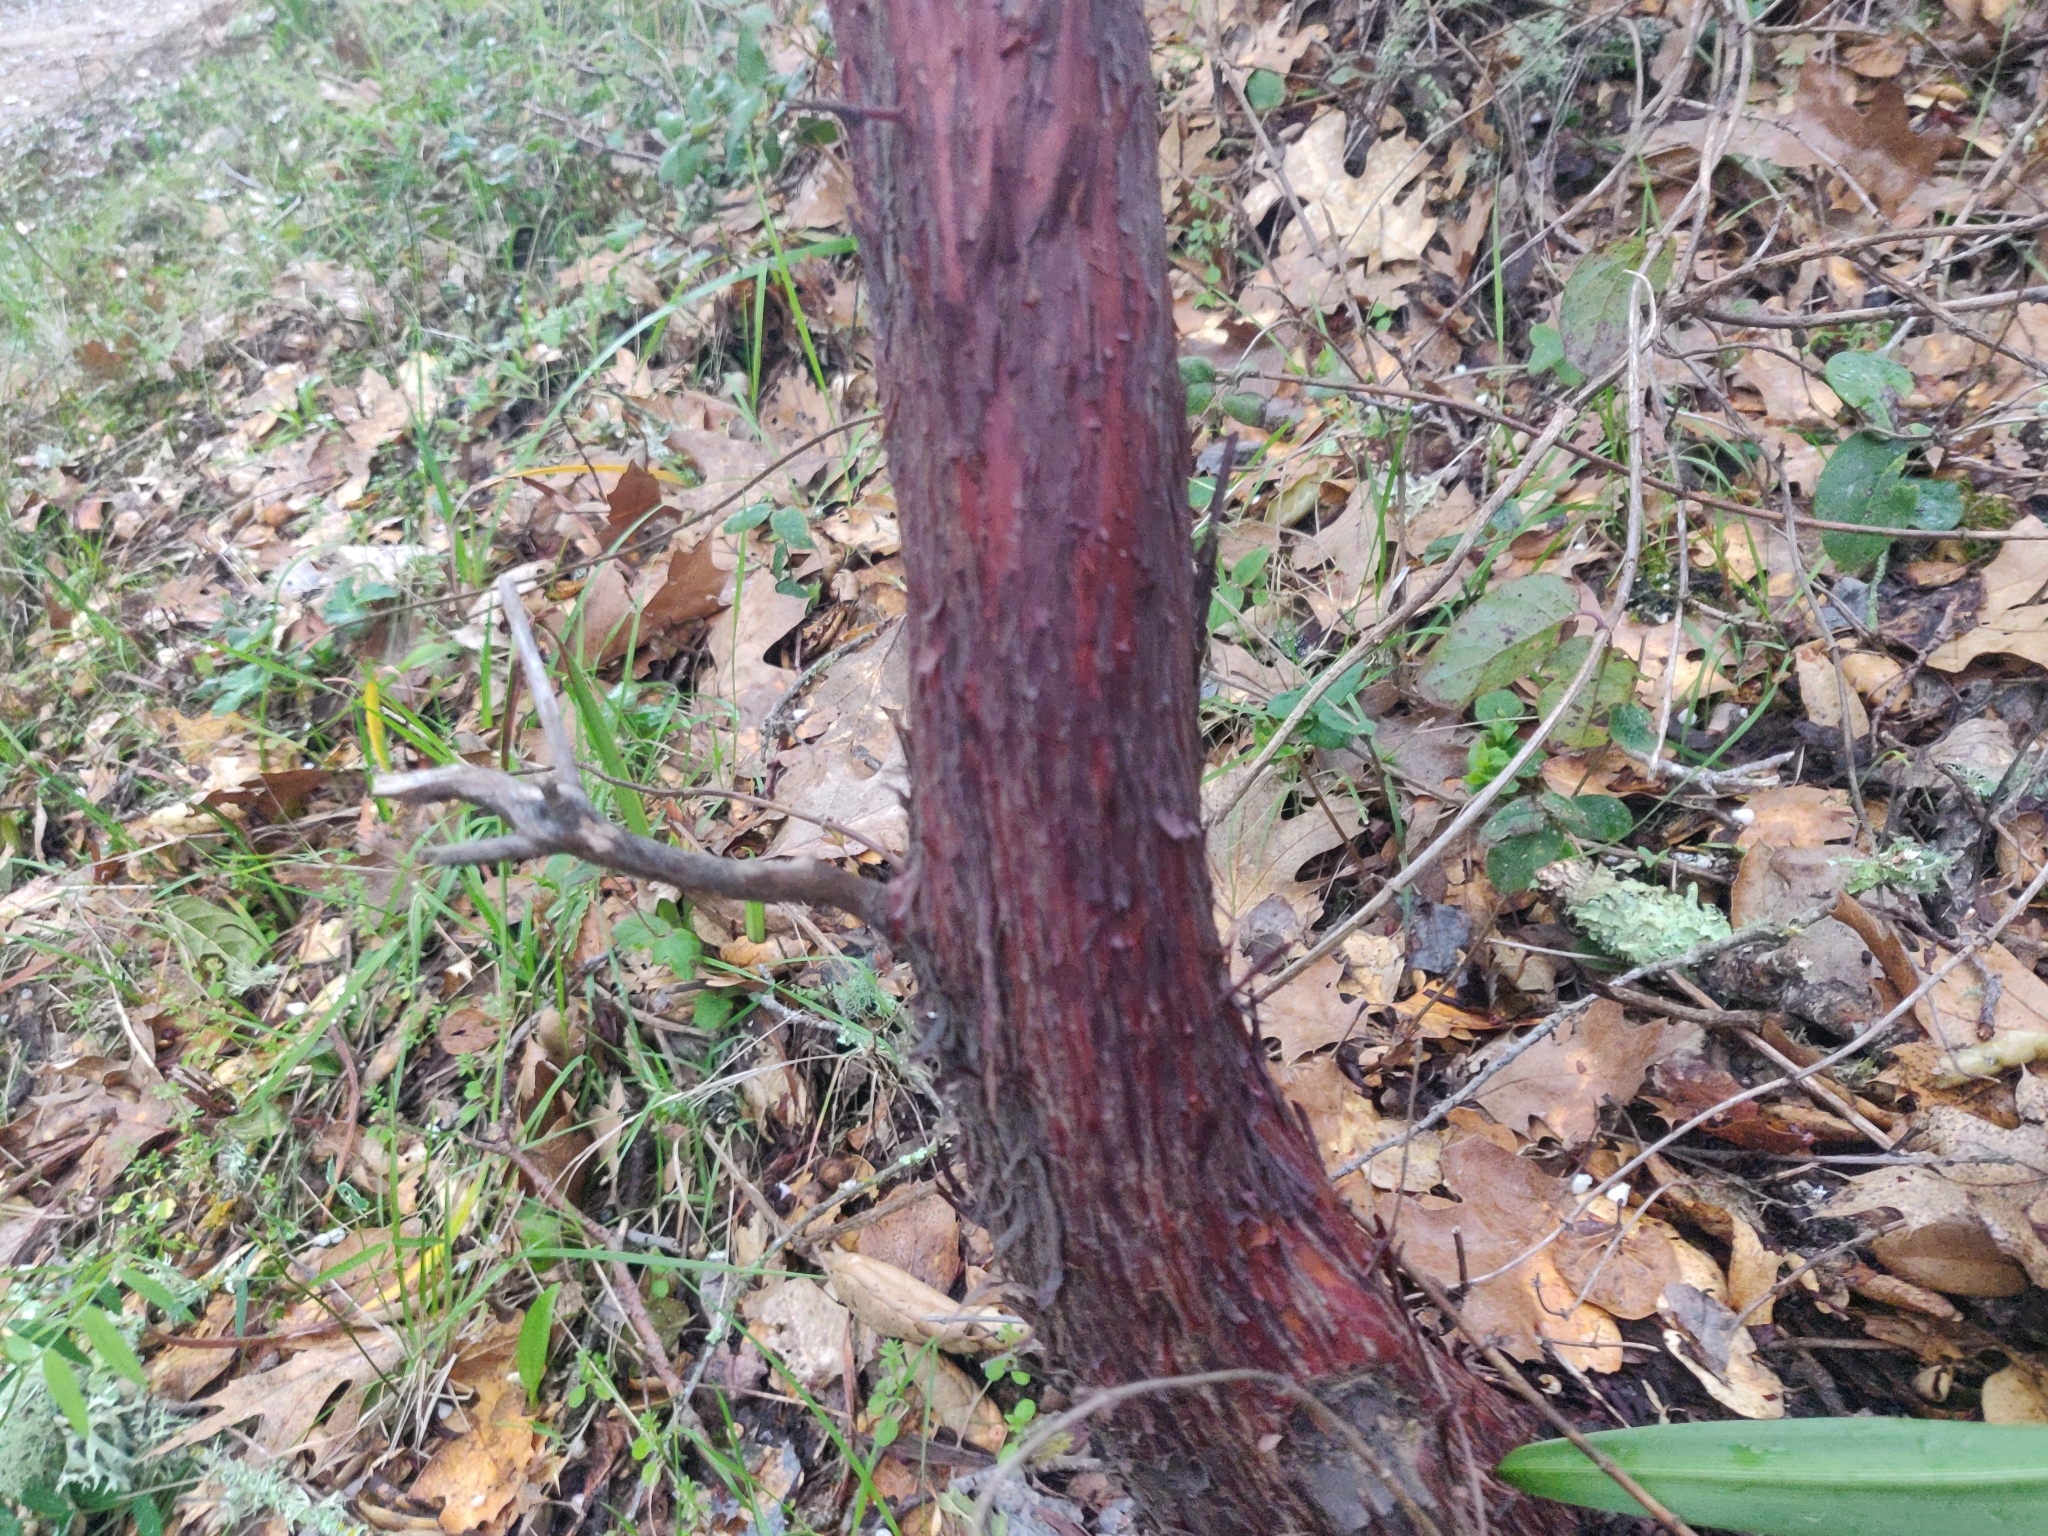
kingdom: Plantae
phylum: Tracheophyta
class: Magnoliopsida
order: Ericales
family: Ericaceae
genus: Arctostaphylos
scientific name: Arctostaphylos regismontana
